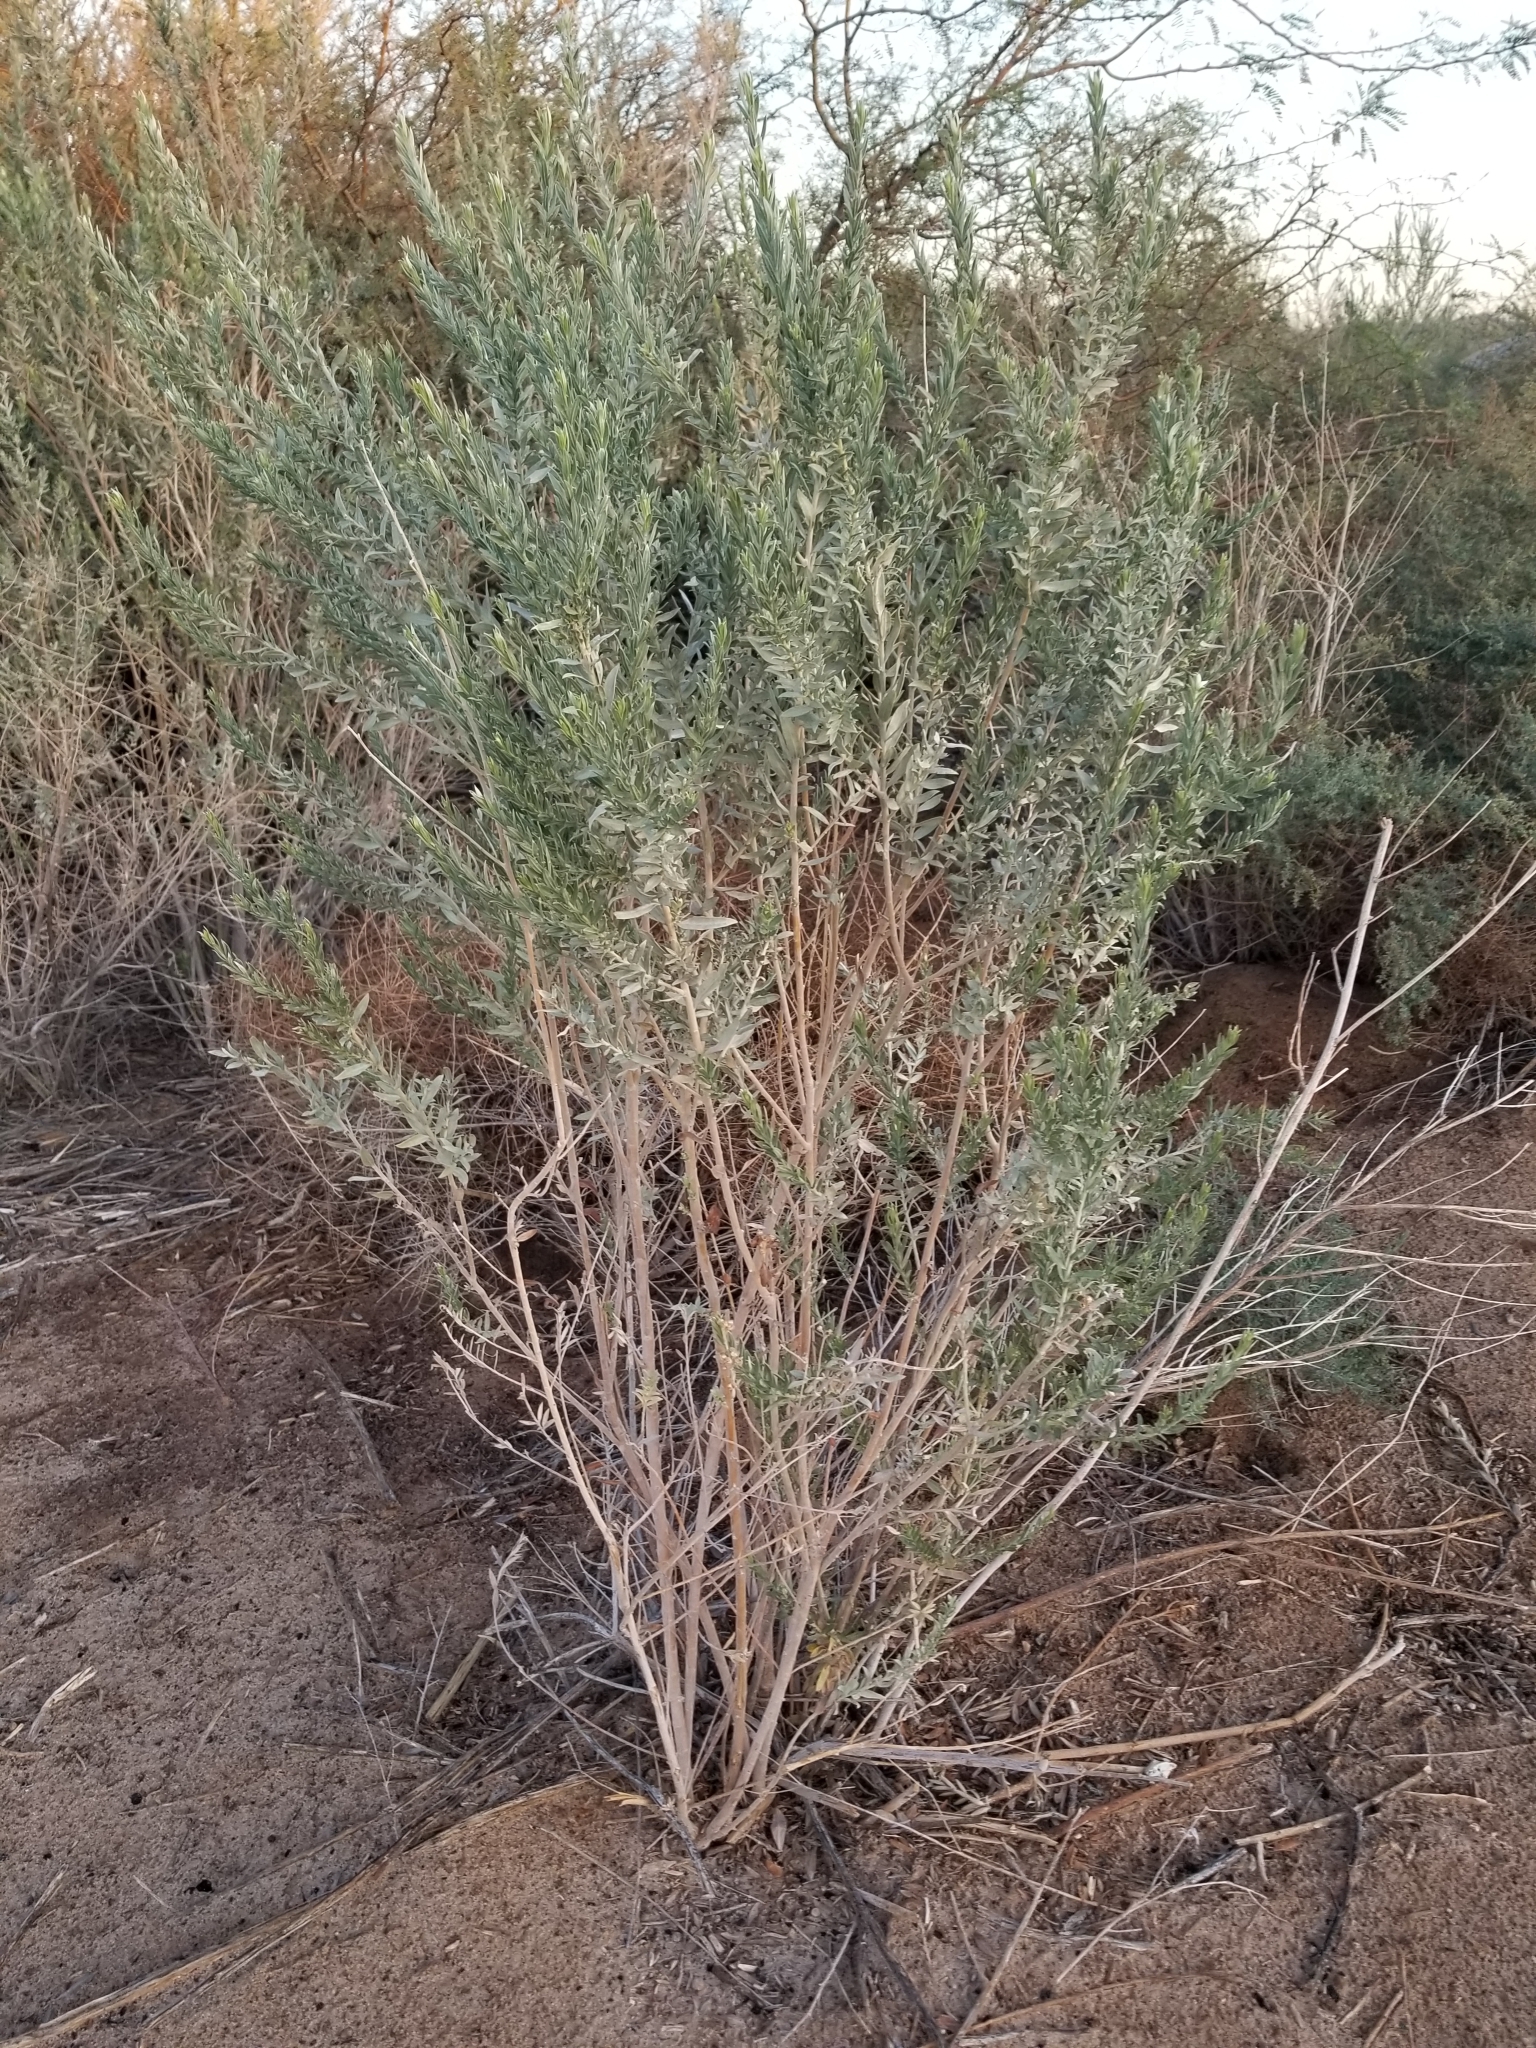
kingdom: Plantae
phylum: Tracheophyta
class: Magnoliopsida
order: Asterales
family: Asteraceae
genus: Pluchea
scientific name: Pluchea sericea
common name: Arrow-weed
